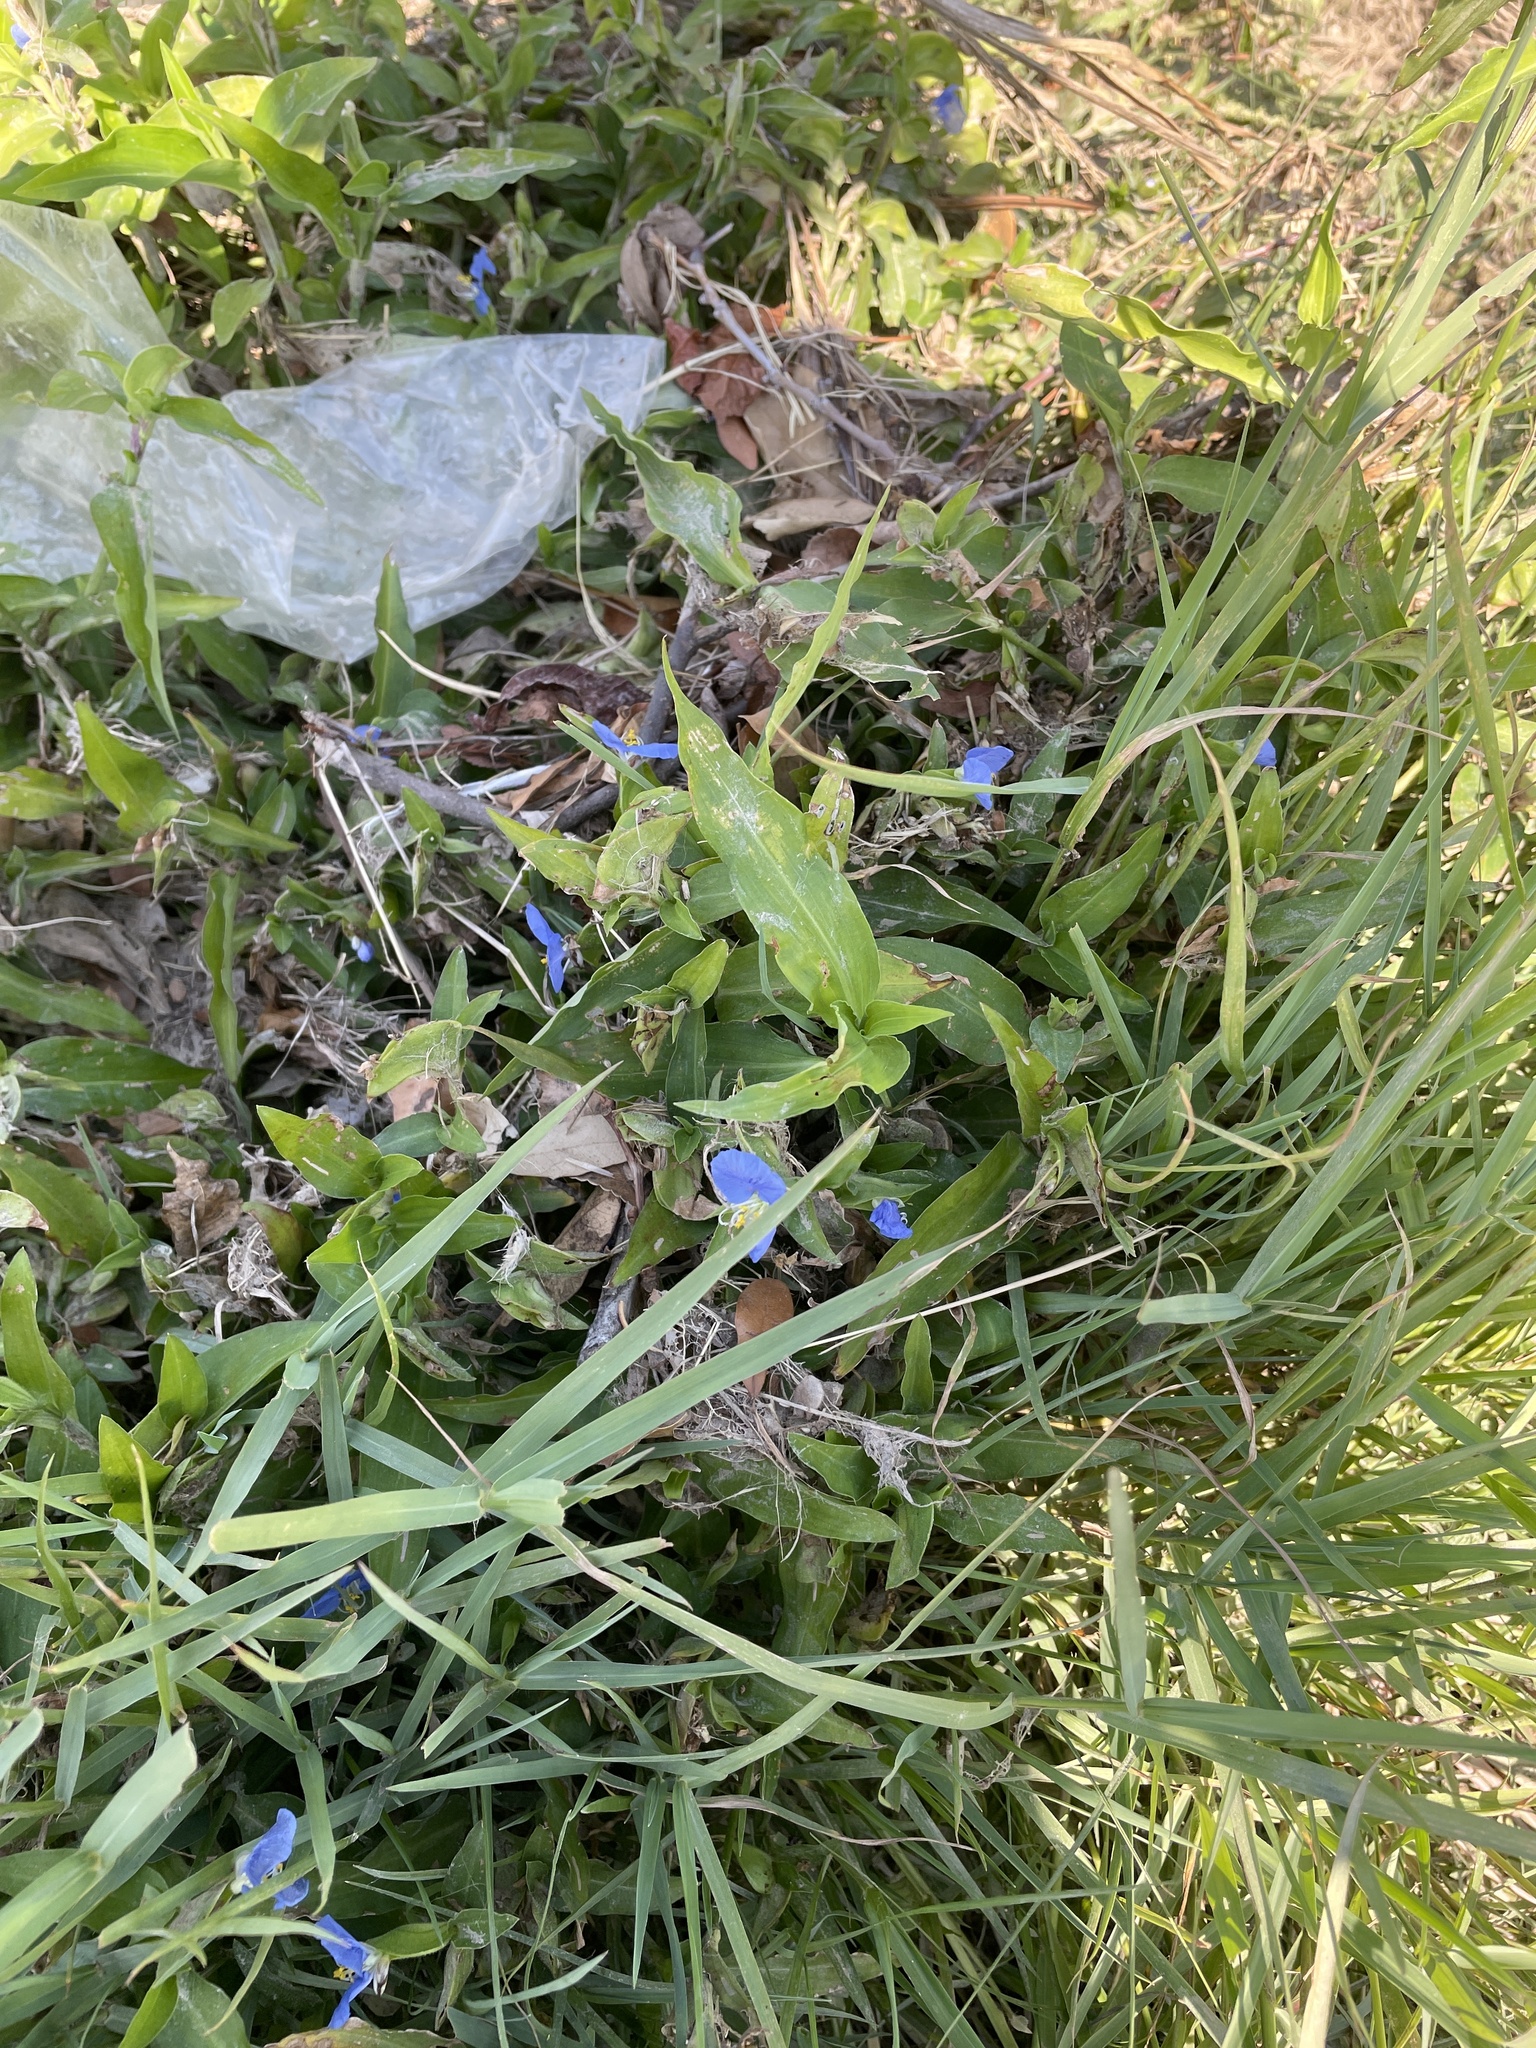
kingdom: Plantae
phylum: Tracheophyta
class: Liliopsida
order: Commelinales
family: Commelinaceae
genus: Commelina
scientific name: Commelina erecta
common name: Blousel blommetjie
